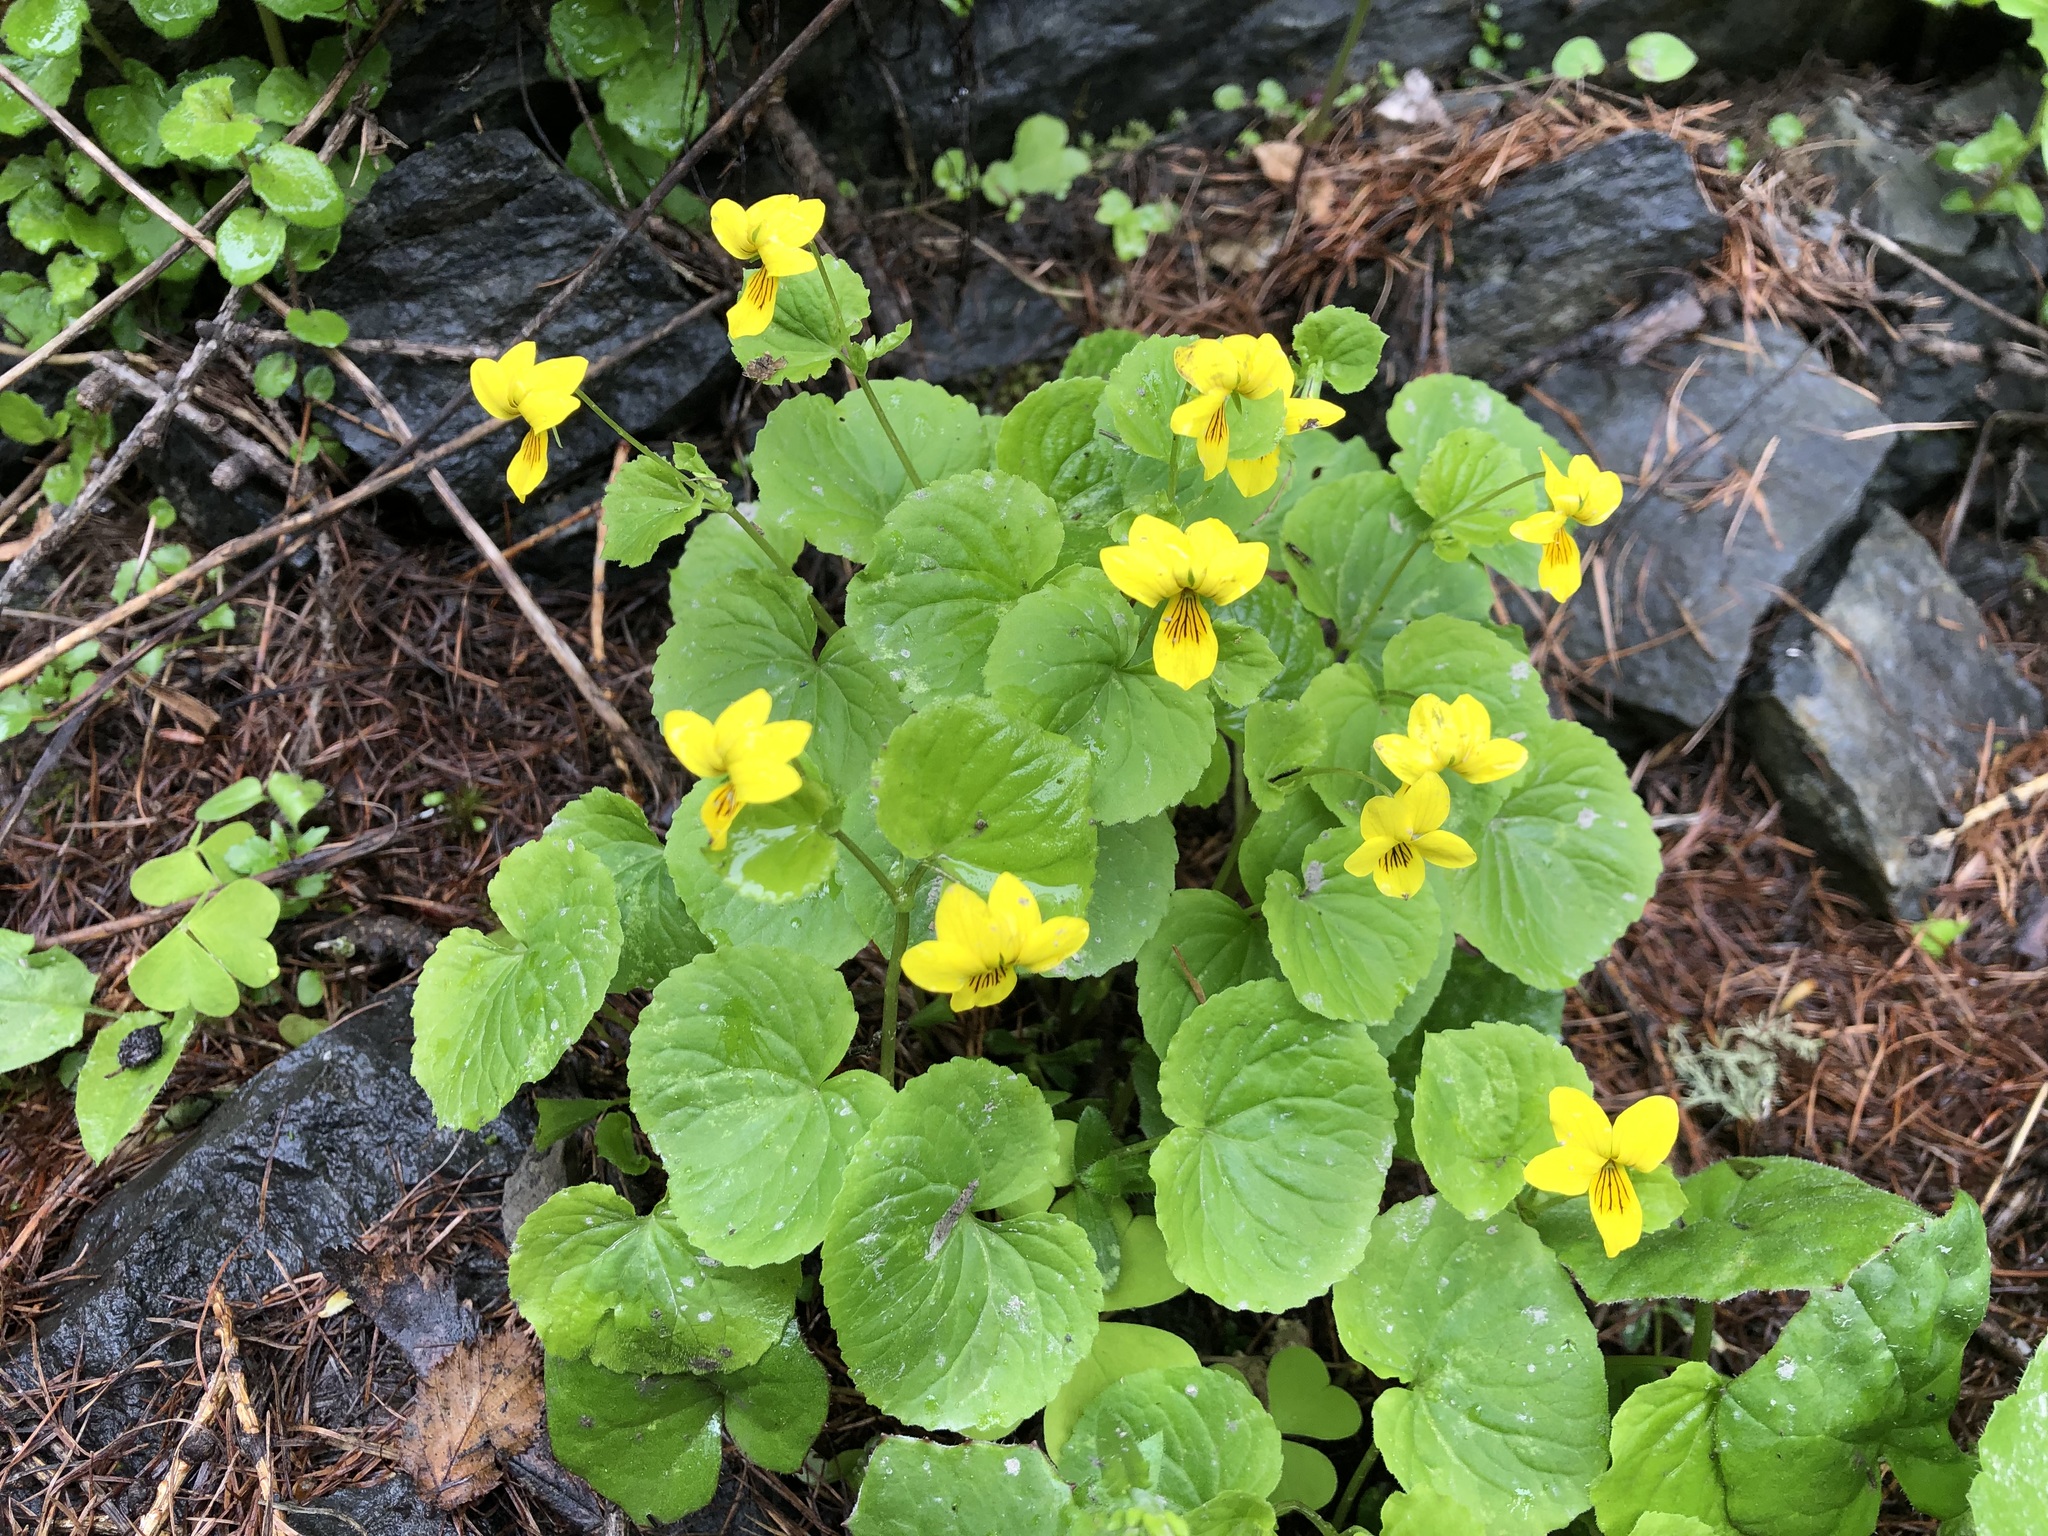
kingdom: Plantae
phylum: Tracheophyta
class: Magnoliopsida
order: Malpighiales
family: Violaceae
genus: Viola
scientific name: Viola biflora
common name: Alpine yellow violet
